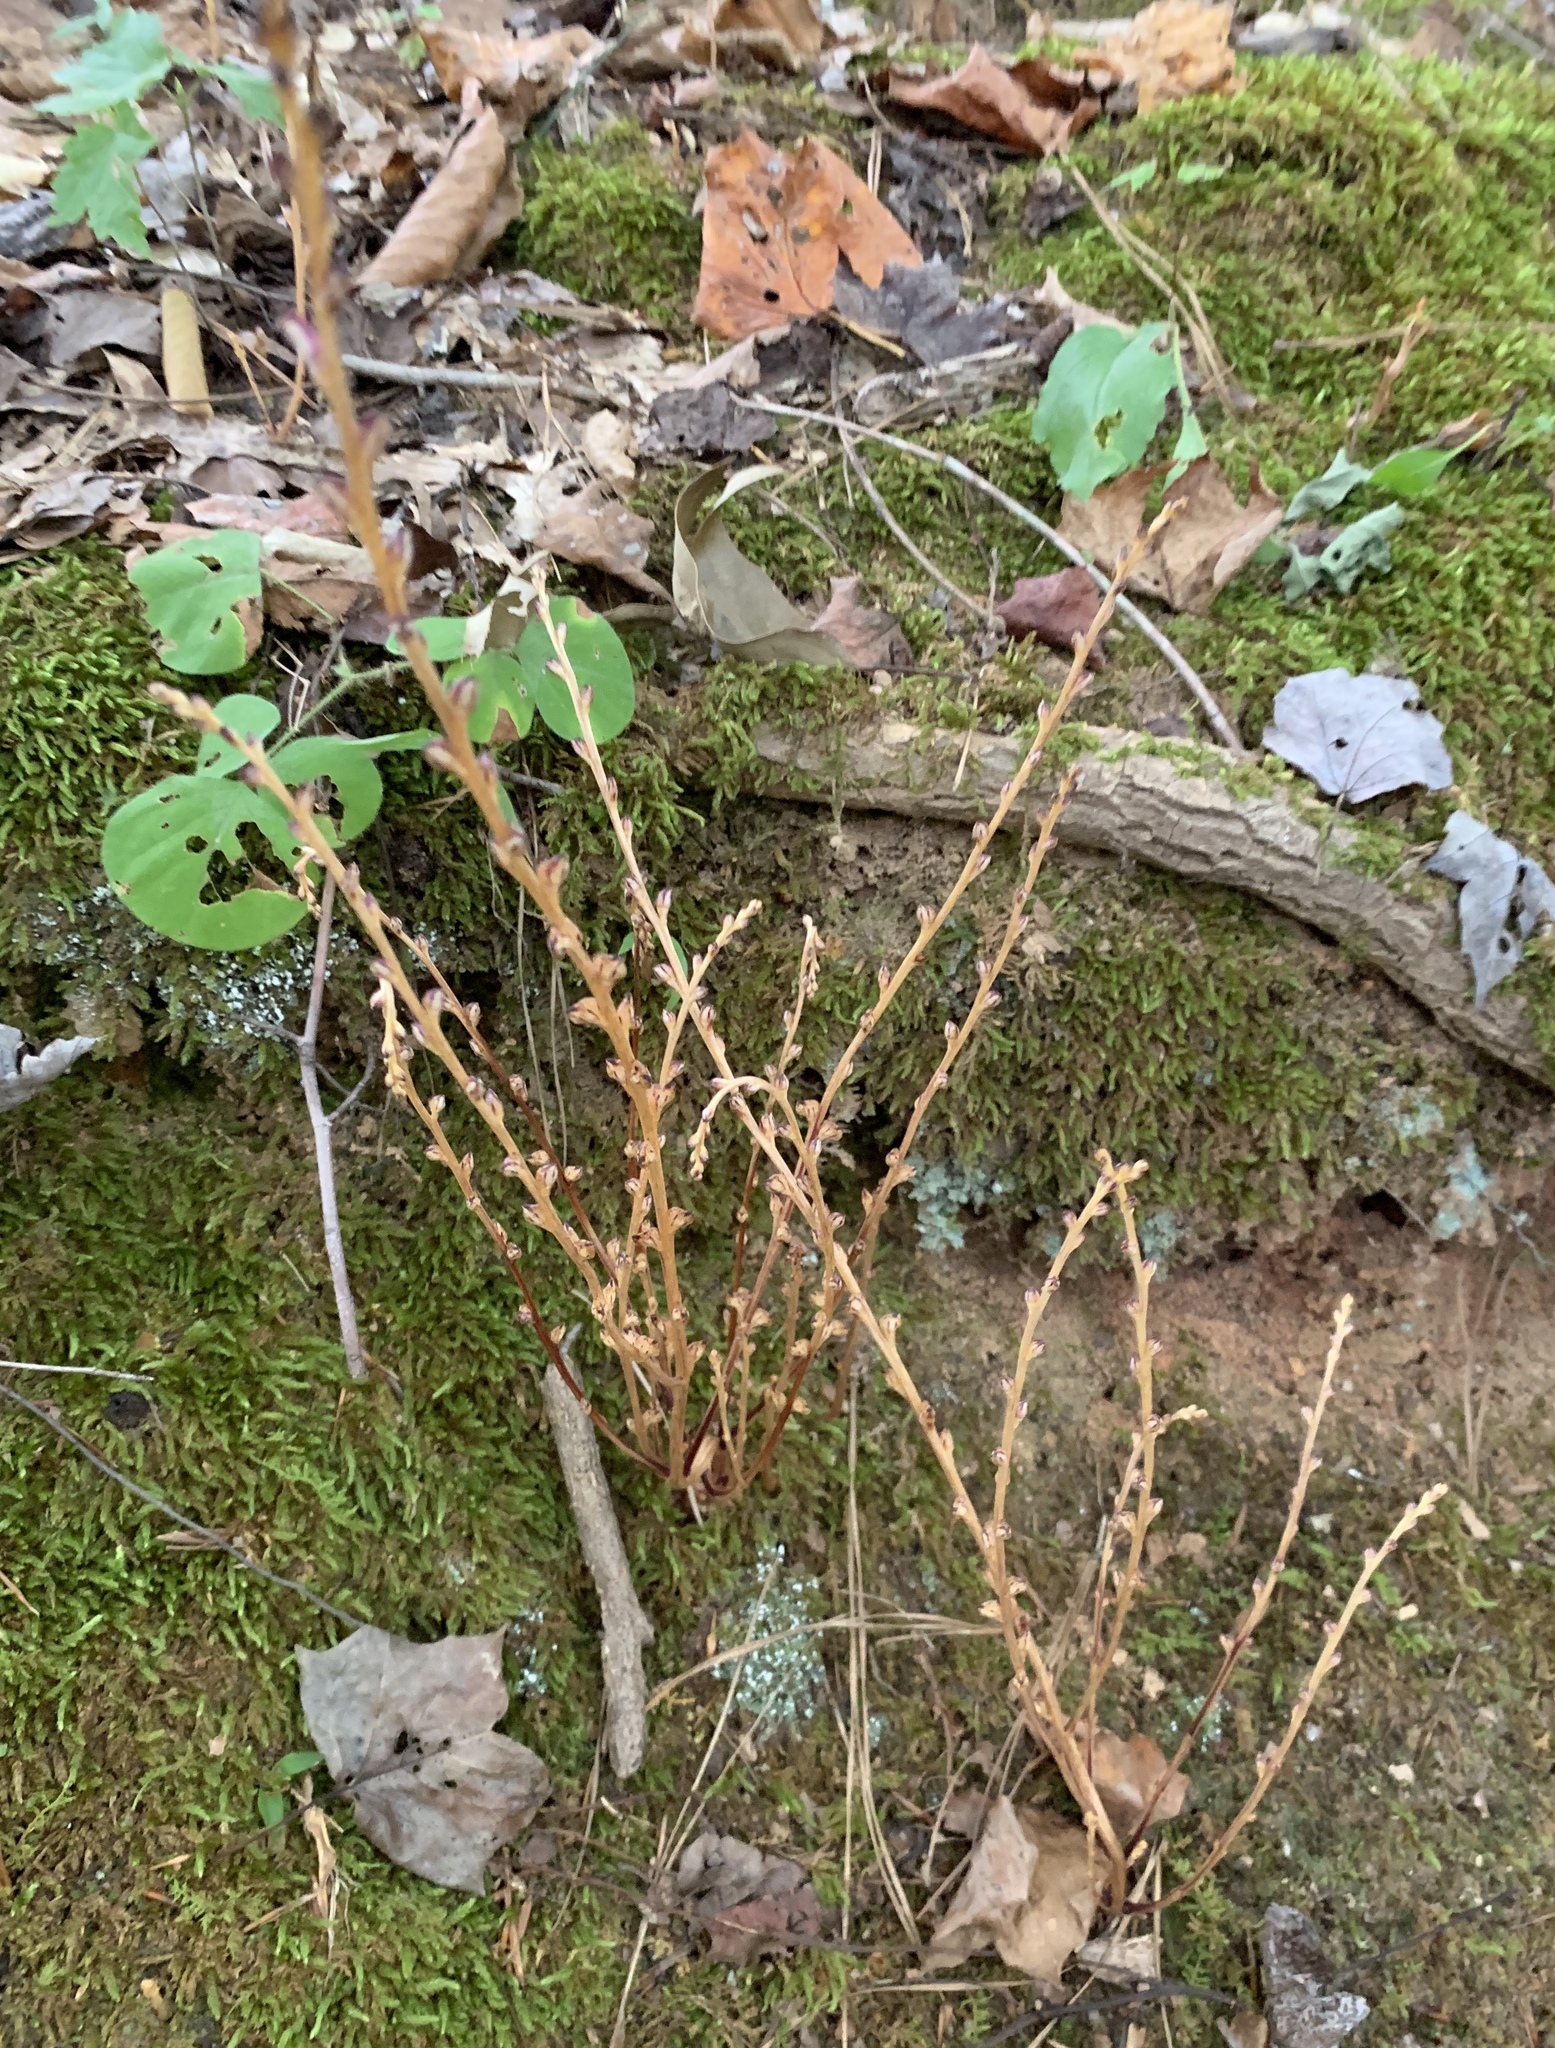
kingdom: Plantae
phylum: Tracheophyta
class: Magnoliopsida
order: Lamiales
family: Orobanchaceae
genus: Epifagus
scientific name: Epifagus virginiana
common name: Beechdrops
